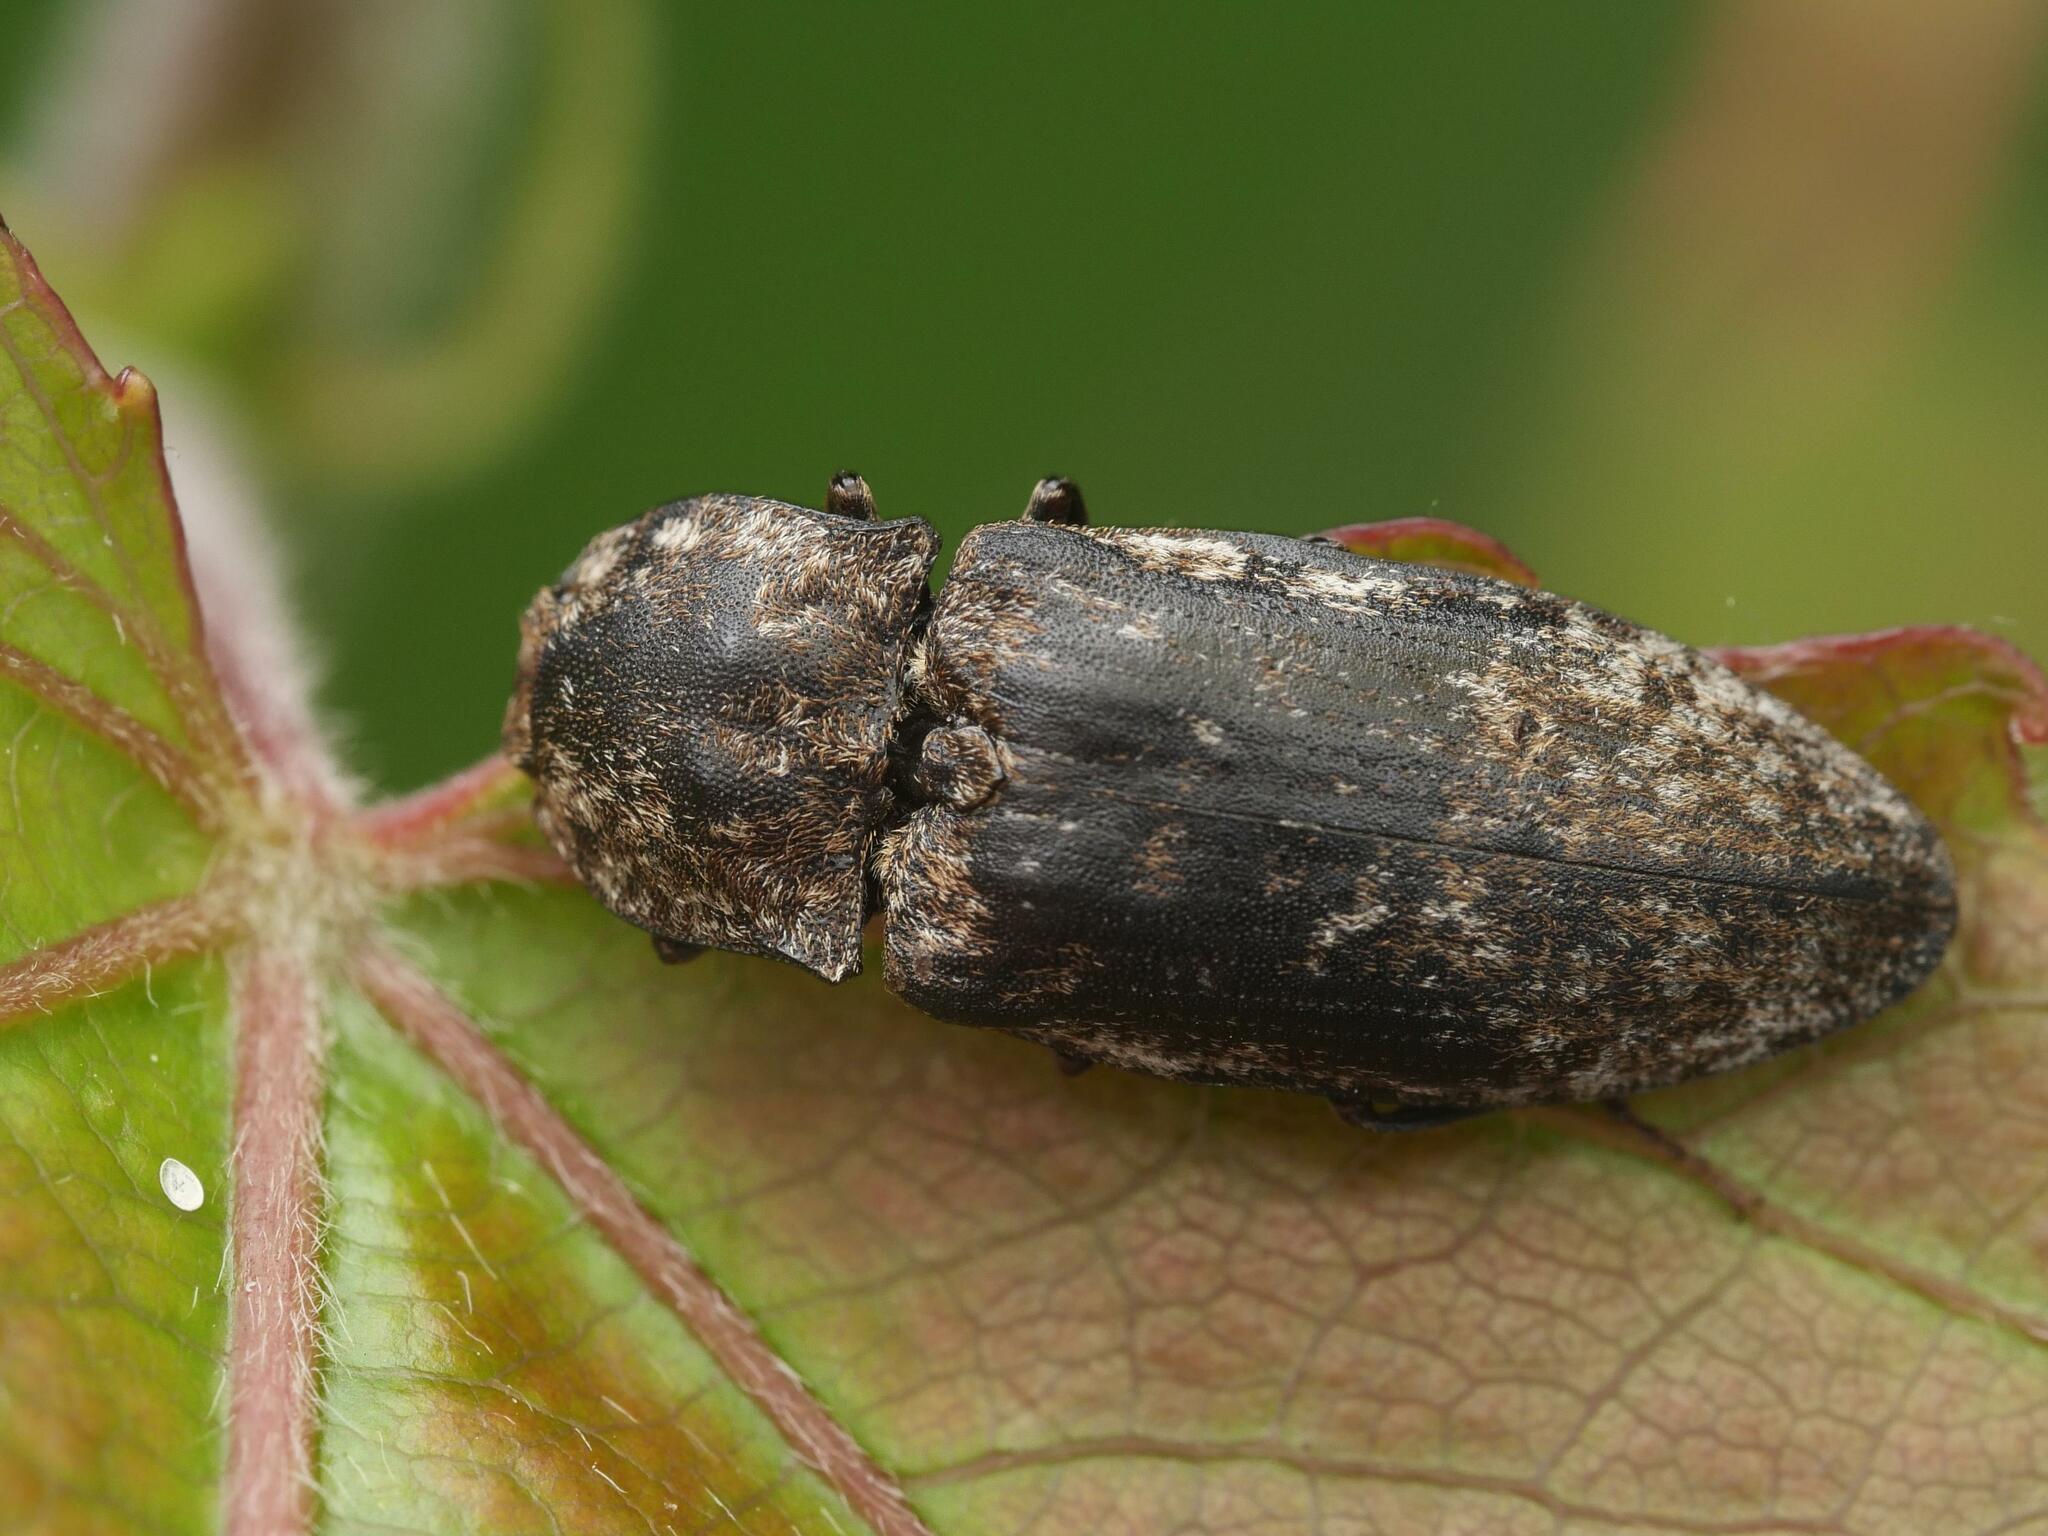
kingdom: Animalia
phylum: Arthropoda
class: Insecta
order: Coleoptera
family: Elateridae
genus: Agrypnus
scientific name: Agrypnus murinus
